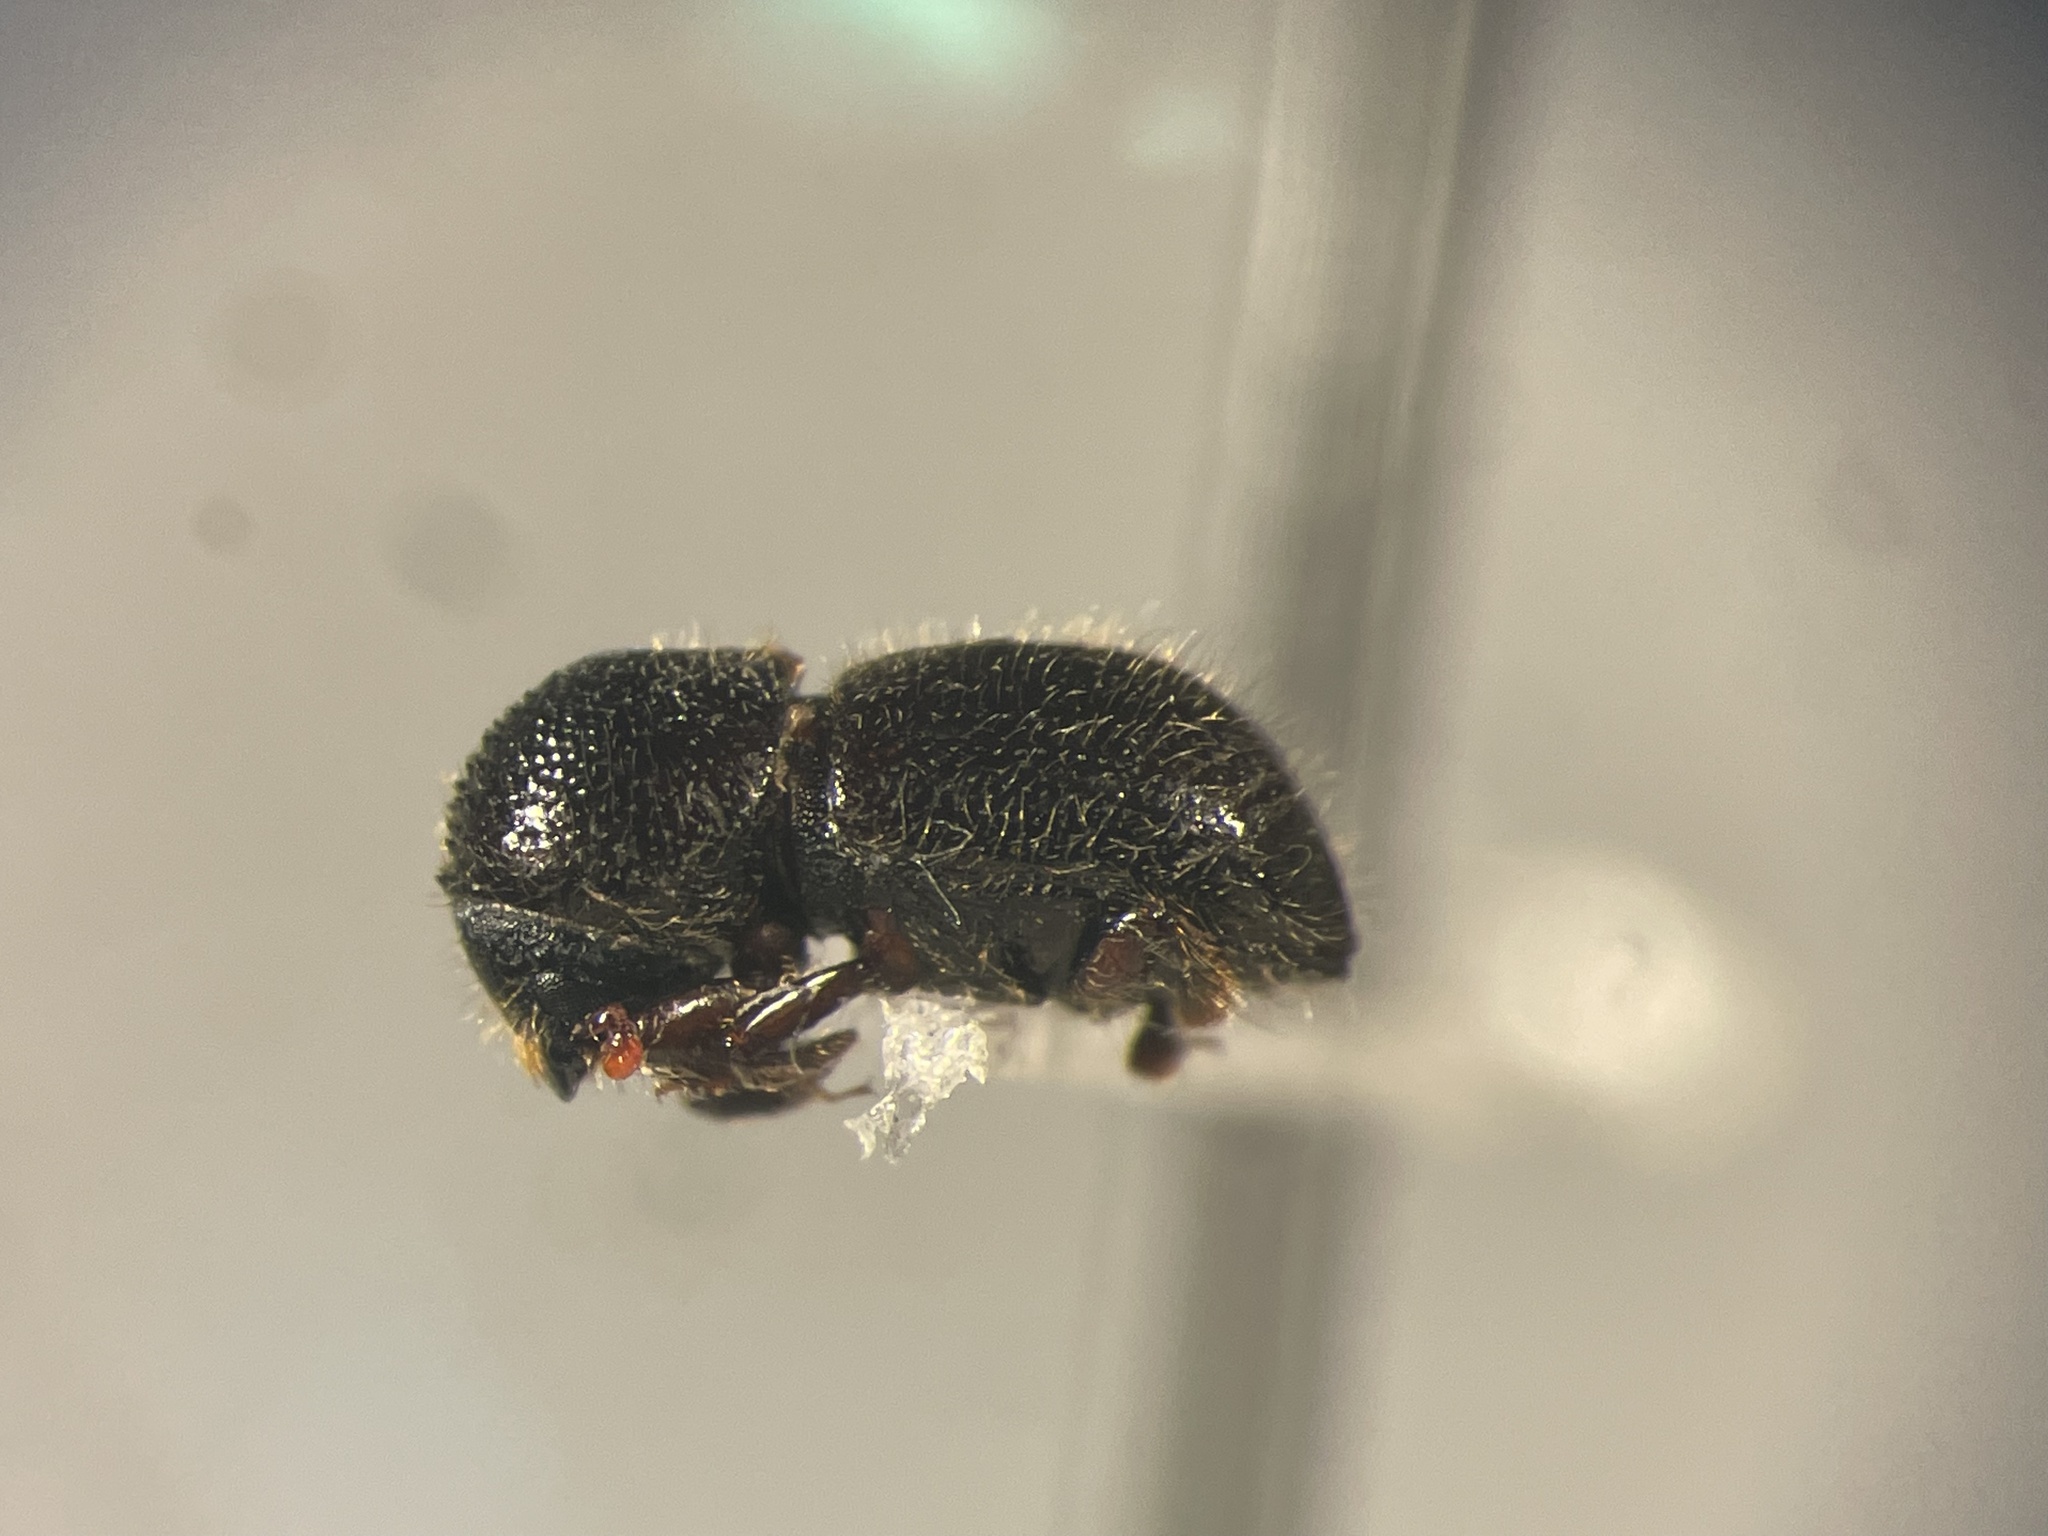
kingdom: Animalia
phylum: Arthropoda
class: Insecta
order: Coleoptera
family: Curculionidae
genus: Anisandrus
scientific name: Anisandrus obesus
